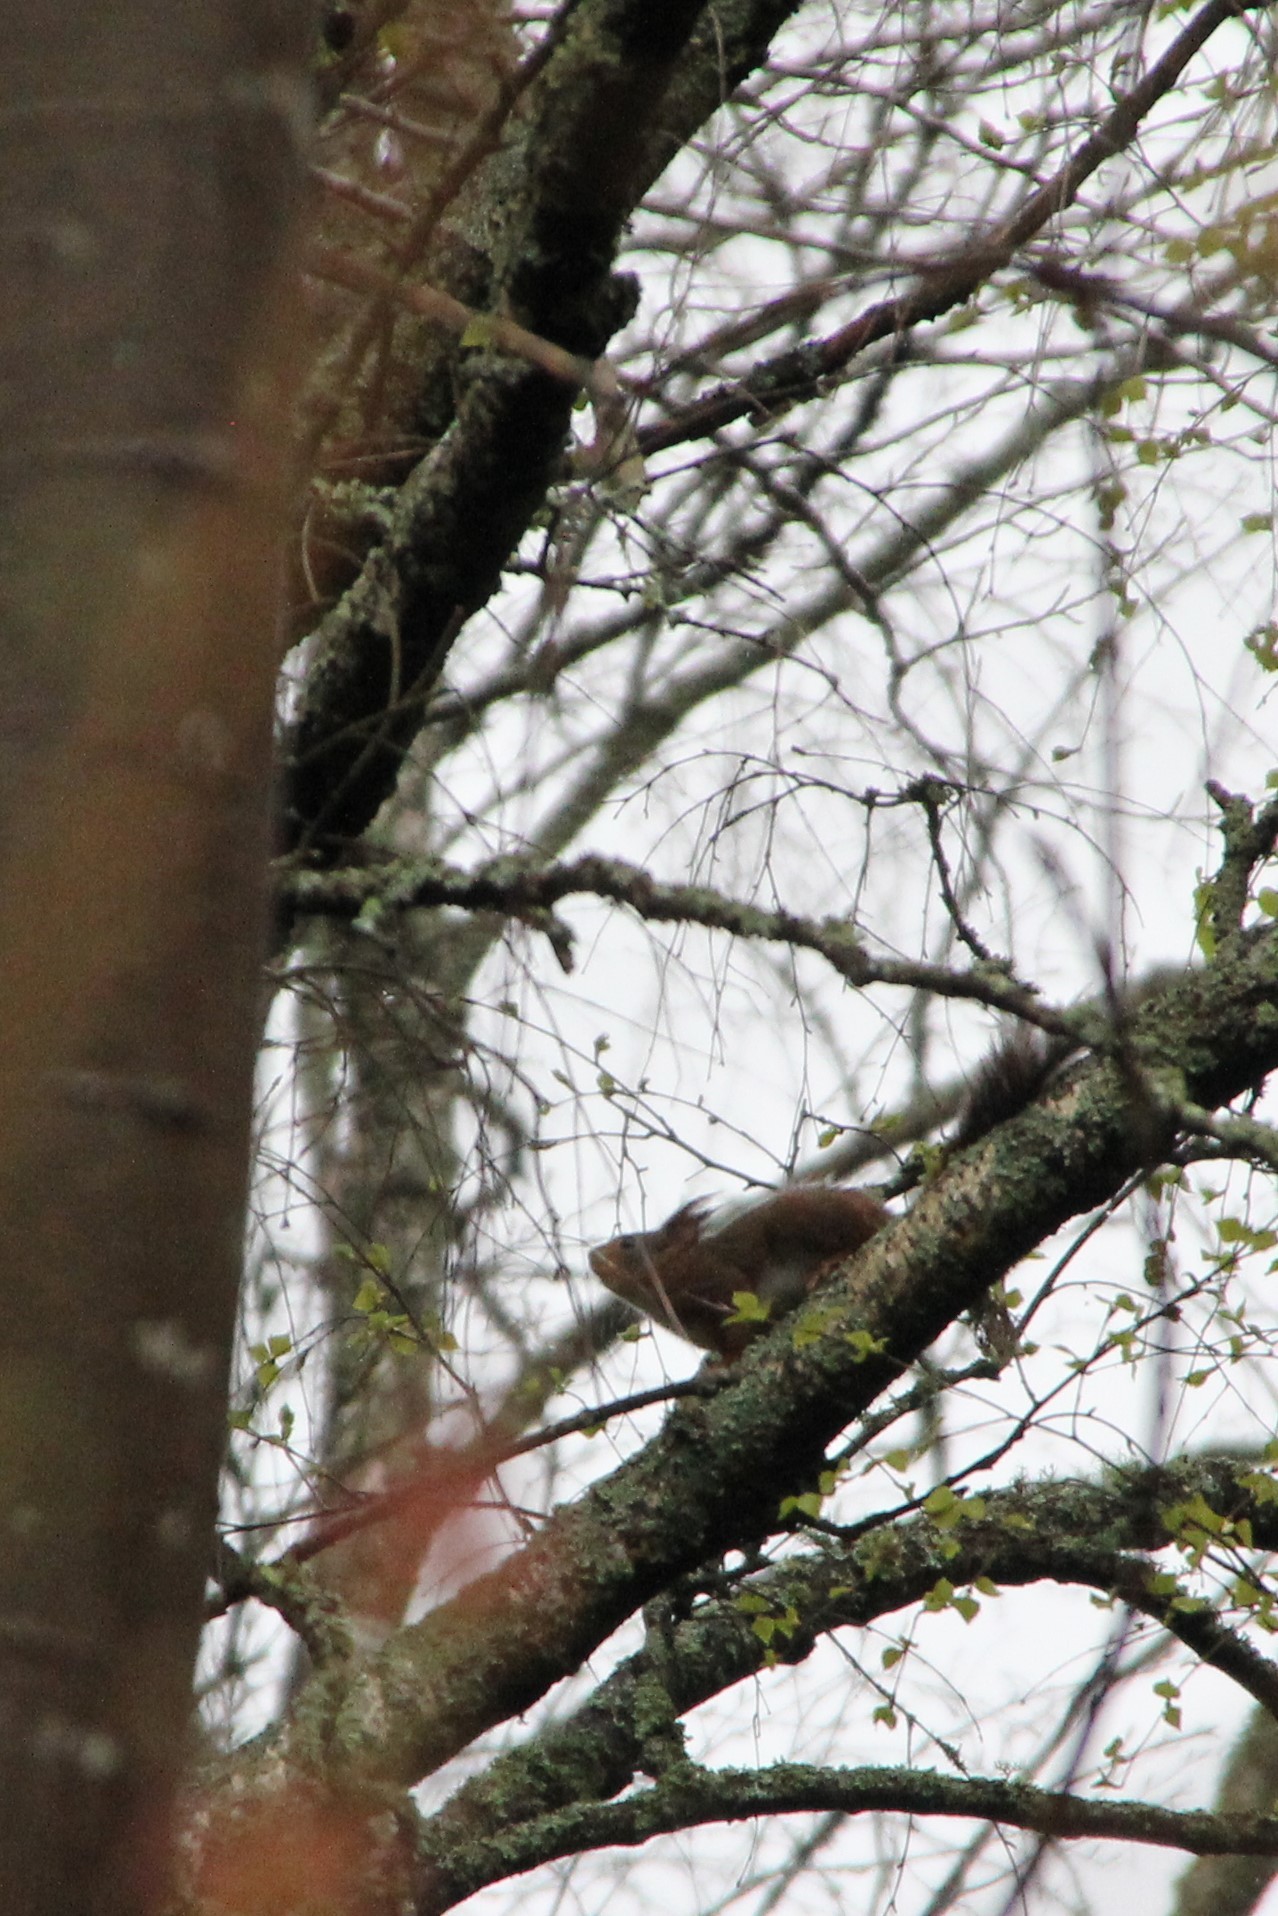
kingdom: Animalia
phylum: Chordata
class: Mammalia
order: Rodentia
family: Sciuridae
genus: Sciurus
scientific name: Sciurus vulgaris
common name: Eurasian red squirrel
